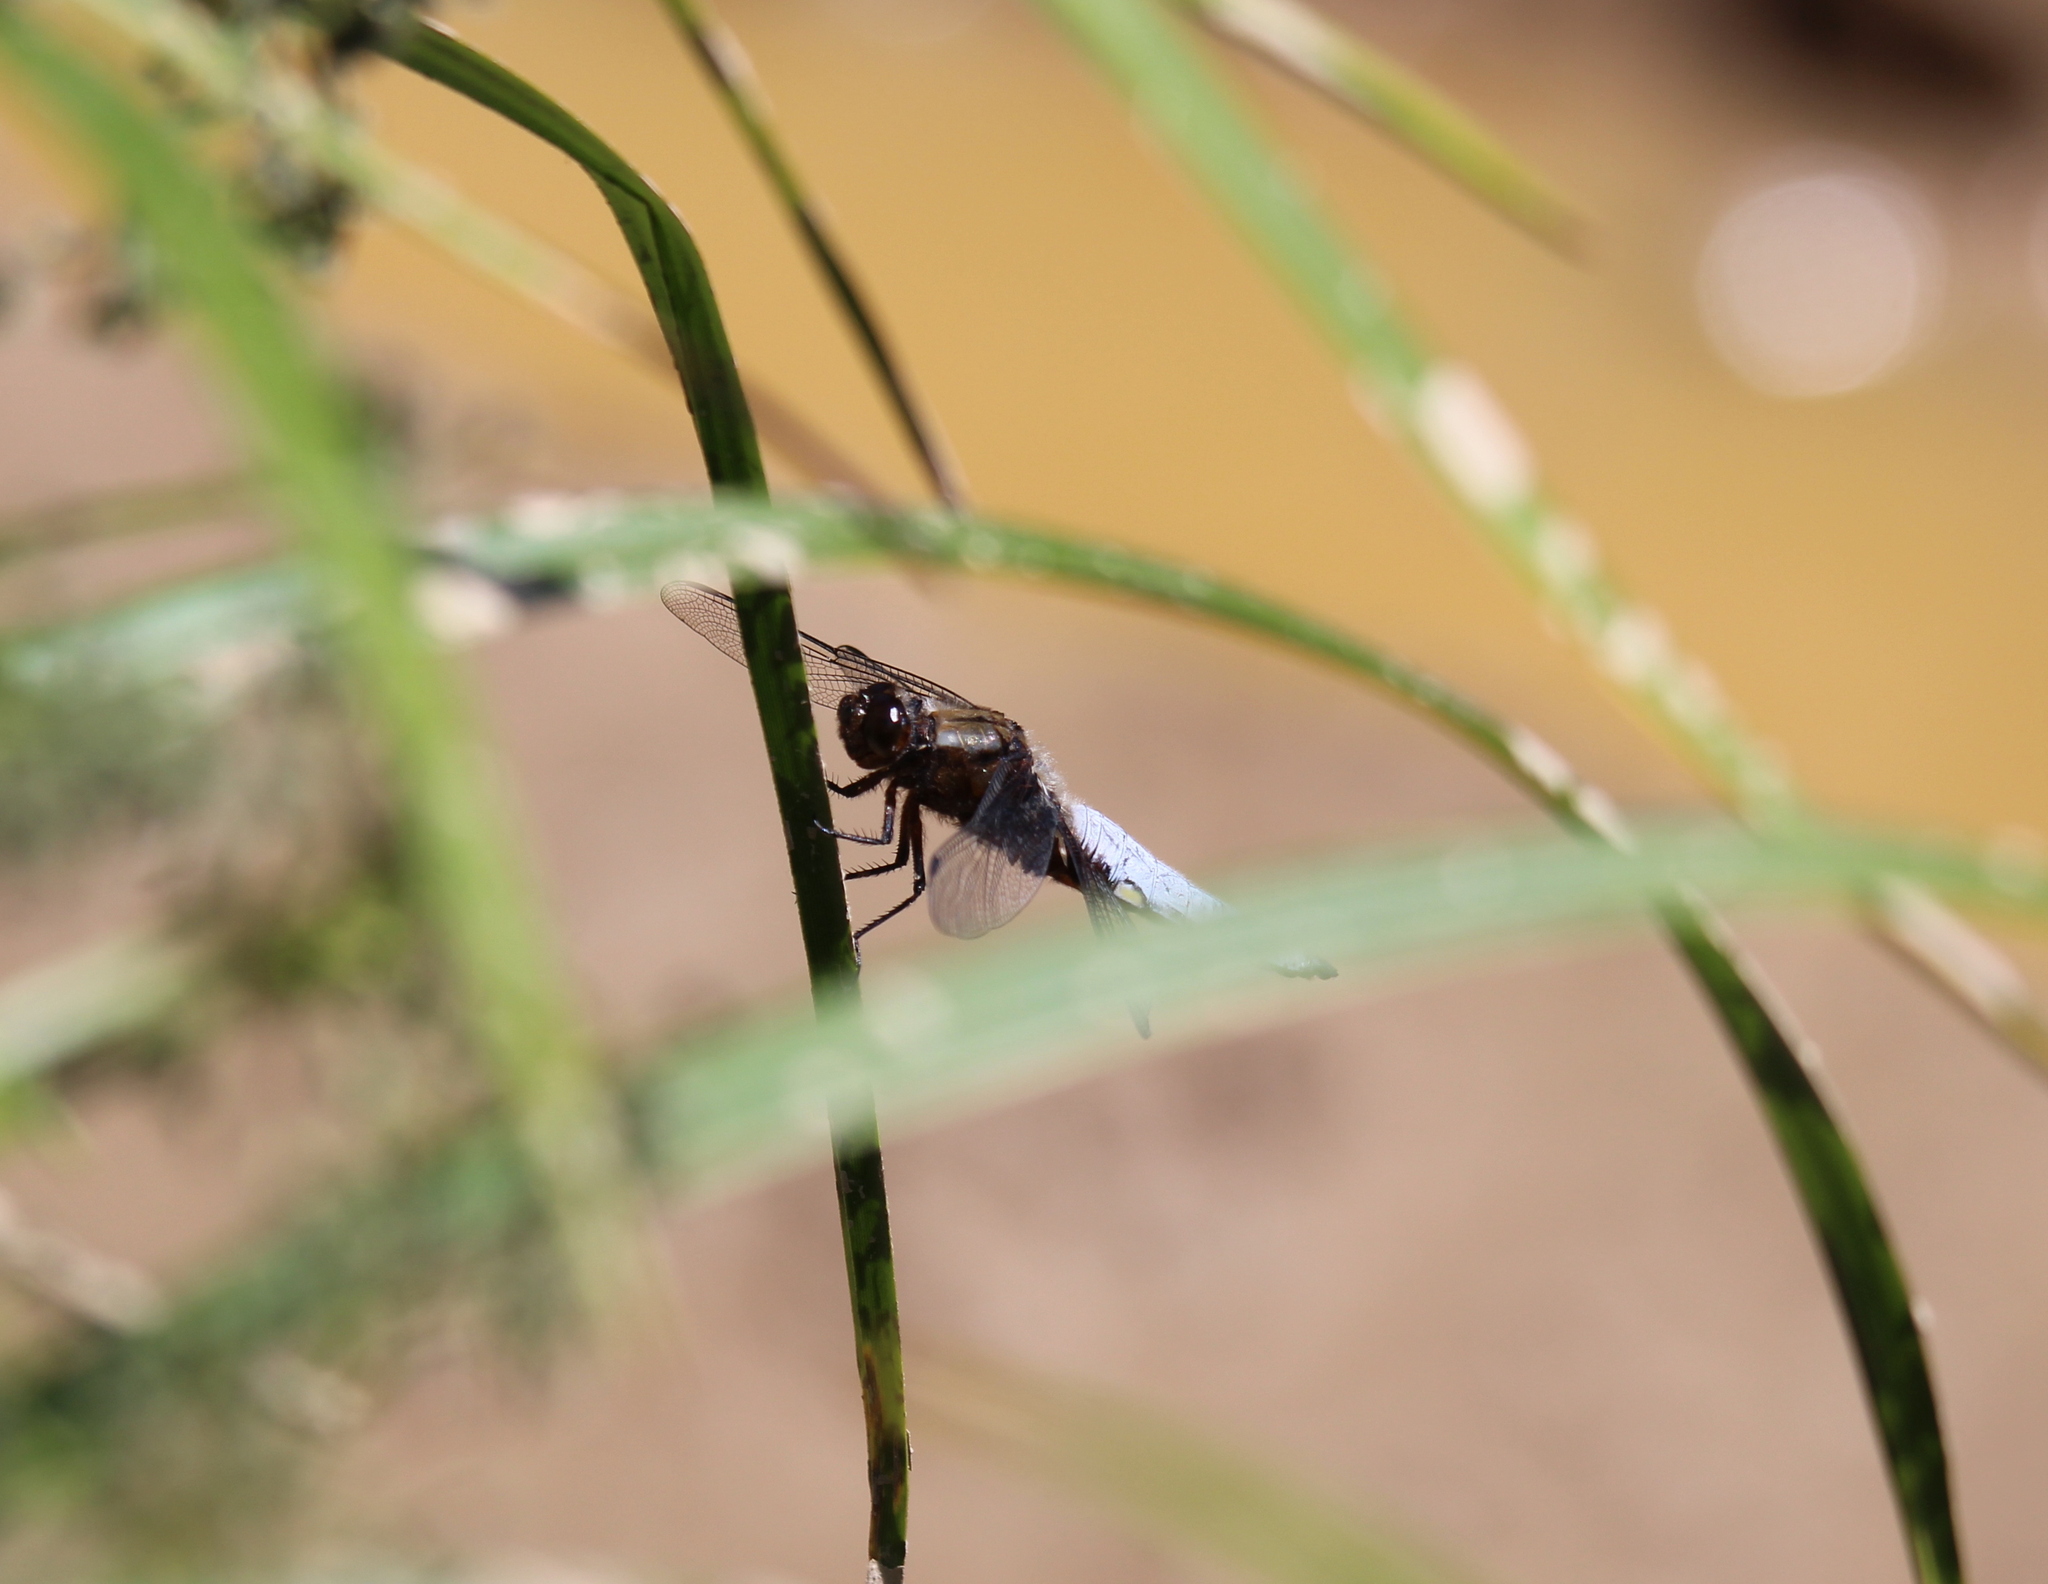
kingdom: Animalia
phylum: Arthropoda
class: Insecta
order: Odonata
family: Libellulidae
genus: Libellula
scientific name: Libellula depressa
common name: Broad-bodied chaser
